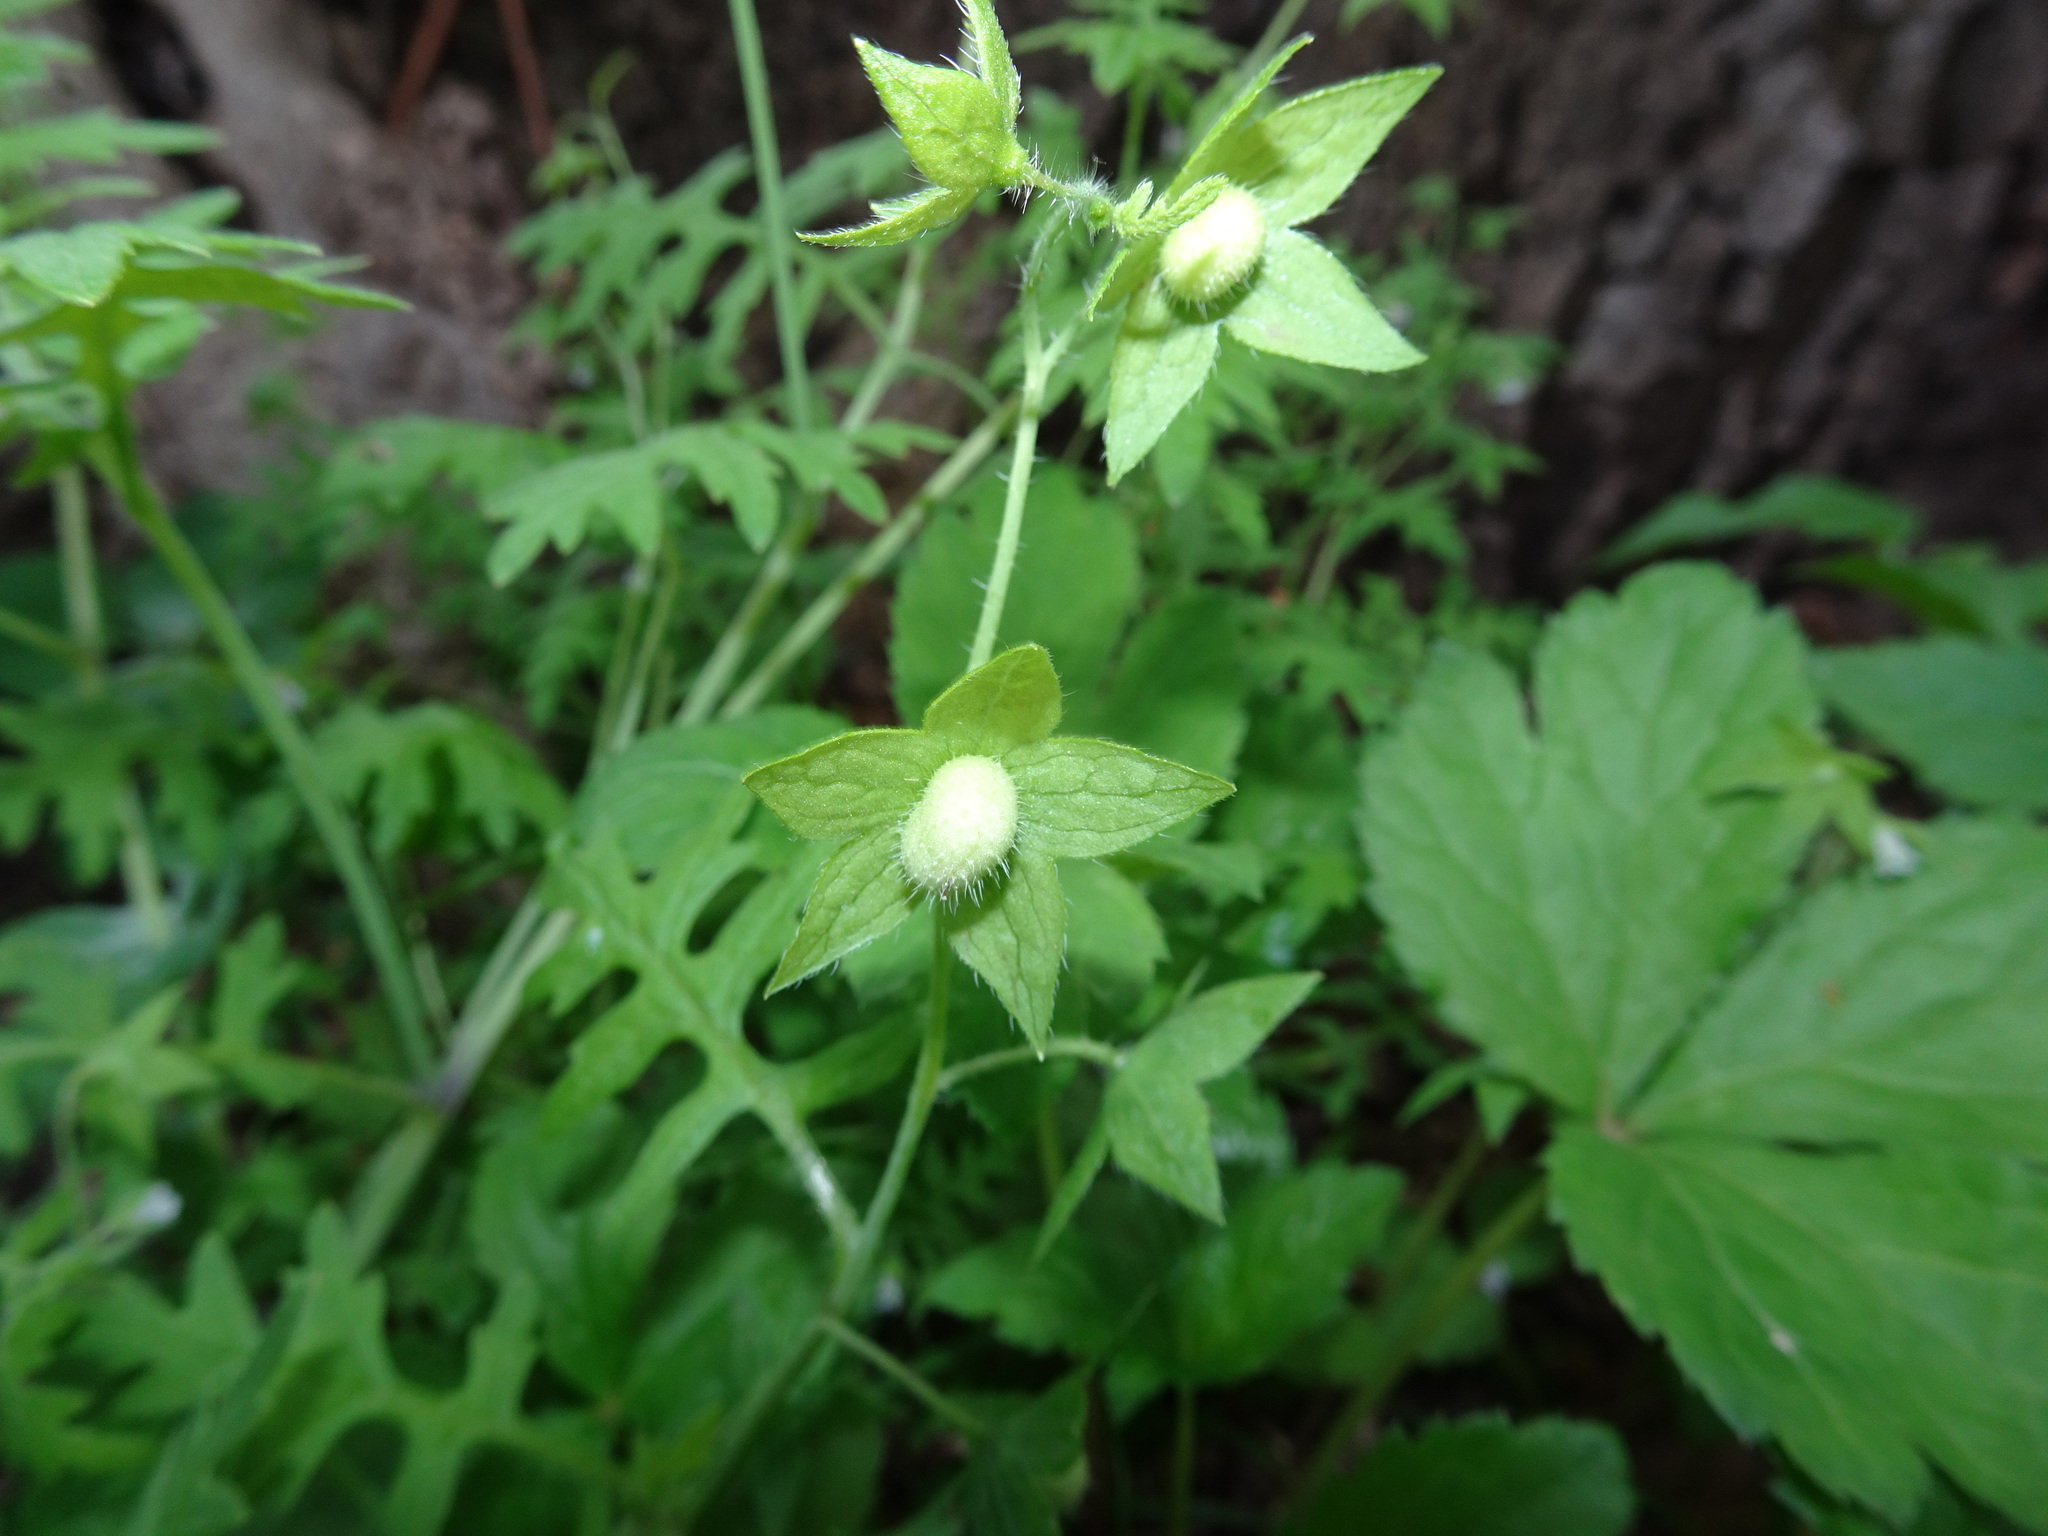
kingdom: Plantae
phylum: Tracheophyta
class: Magnoliopsida
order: Boraginales
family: Hydrophyllaceae
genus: Ellisia
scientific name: Ellisia nyctelea
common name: Aunt lucy
